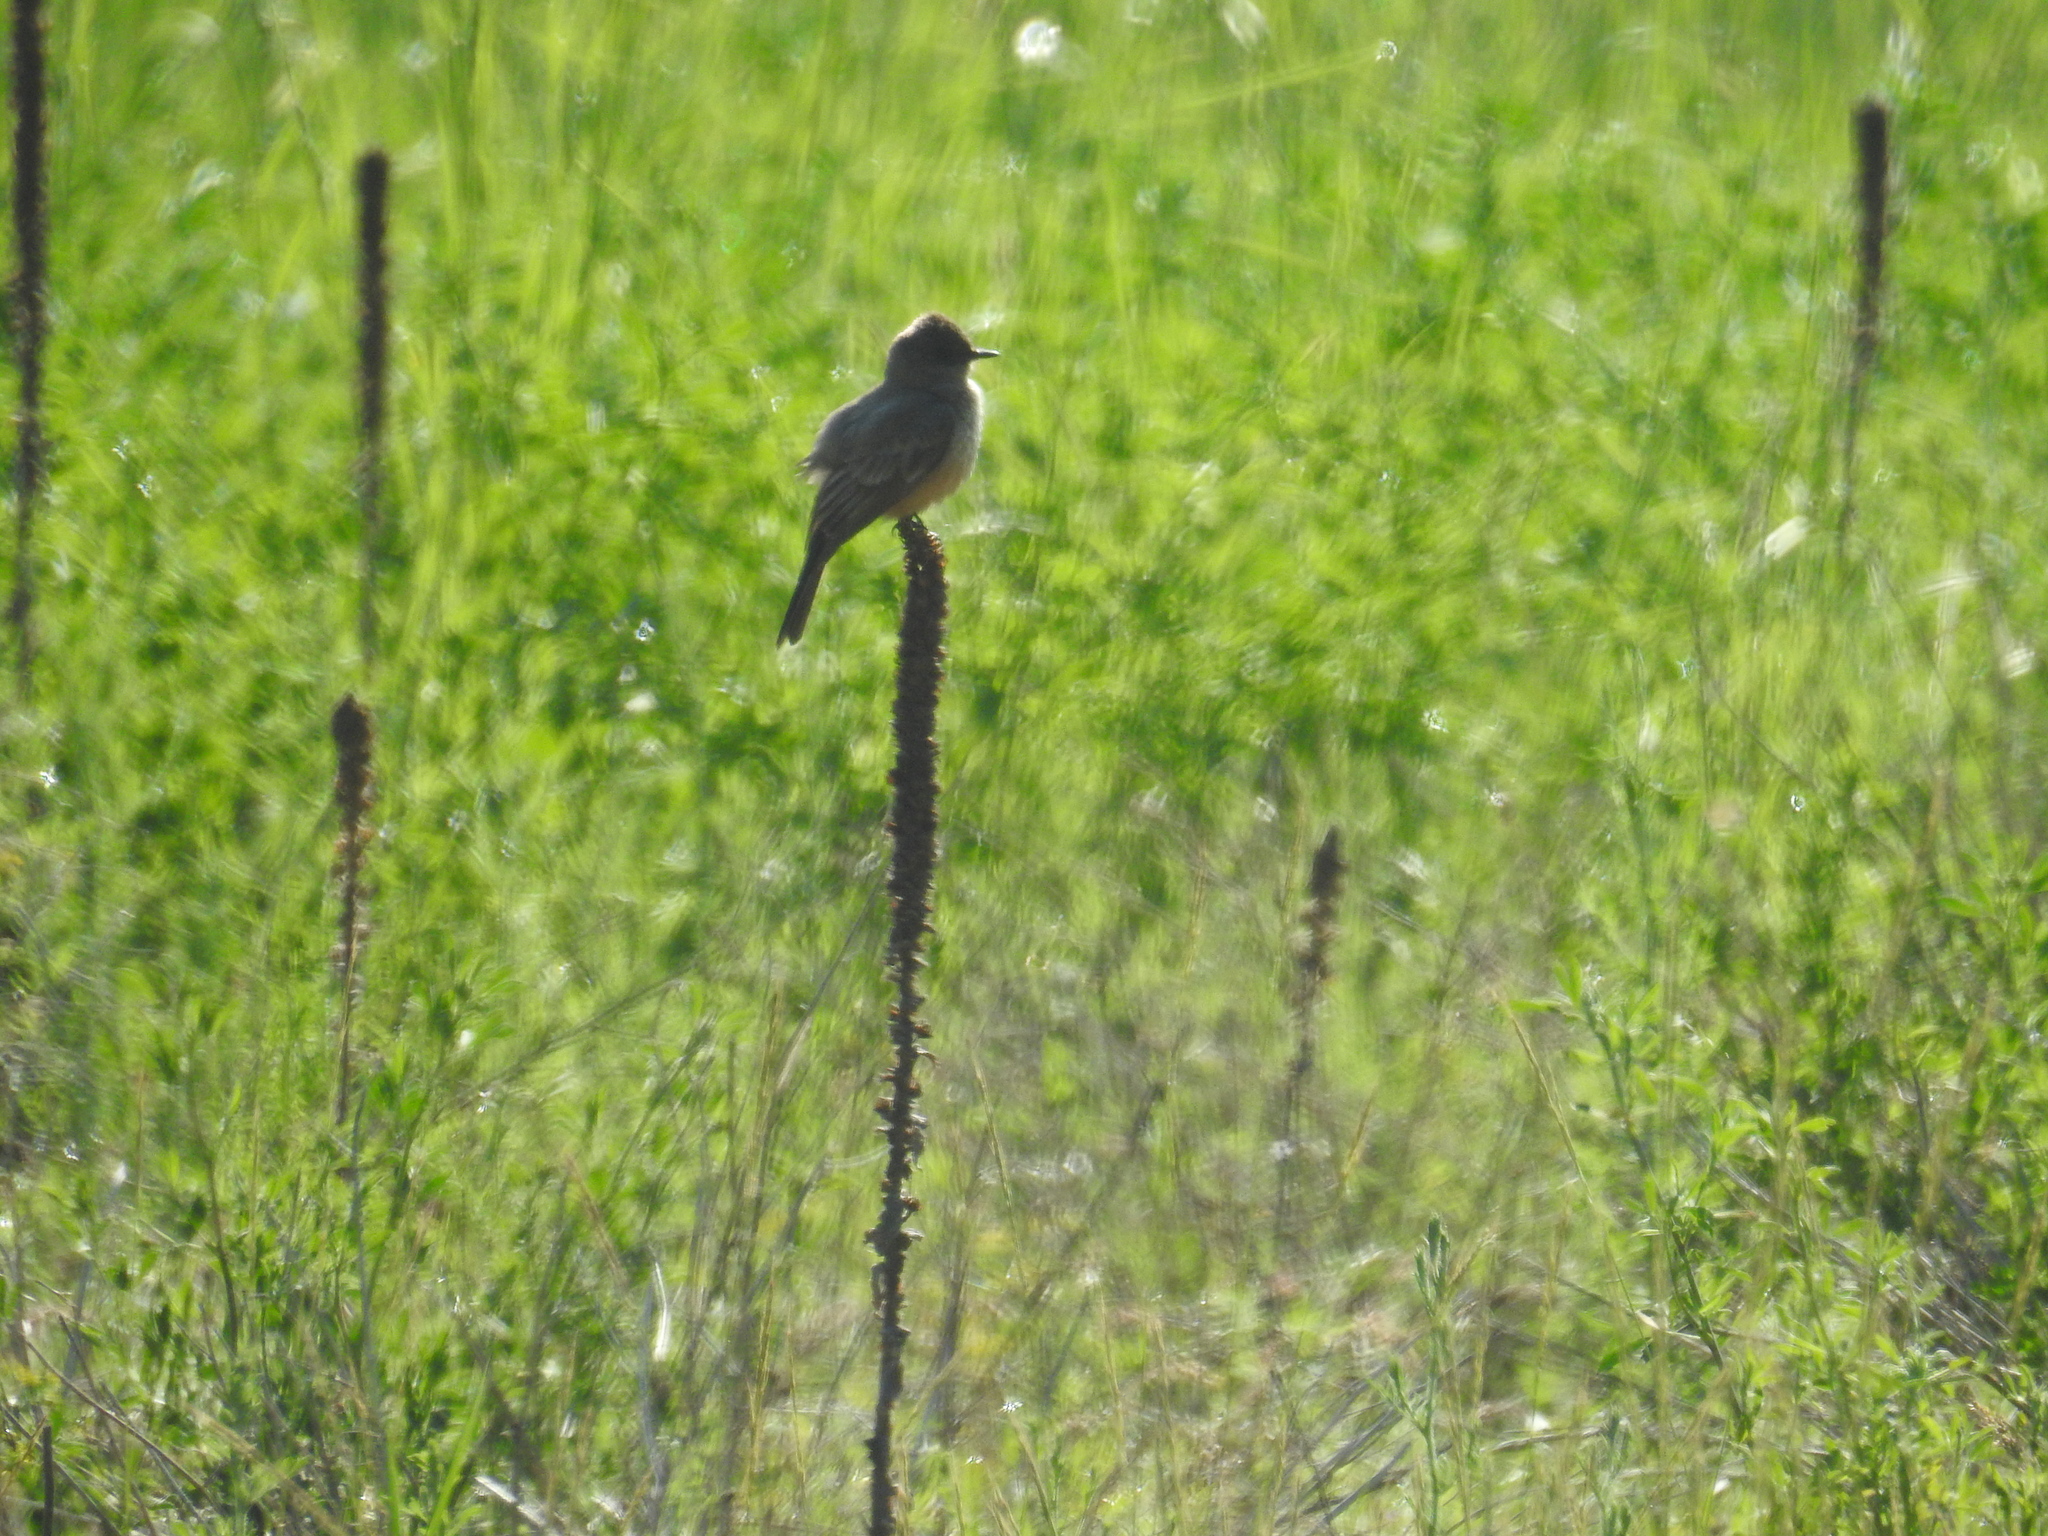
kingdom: Animalia
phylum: Chordata
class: Aves
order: Passeriformes
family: Tyrannidae
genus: Sayornis
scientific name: Sayornis saya
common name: Say's phoebe
